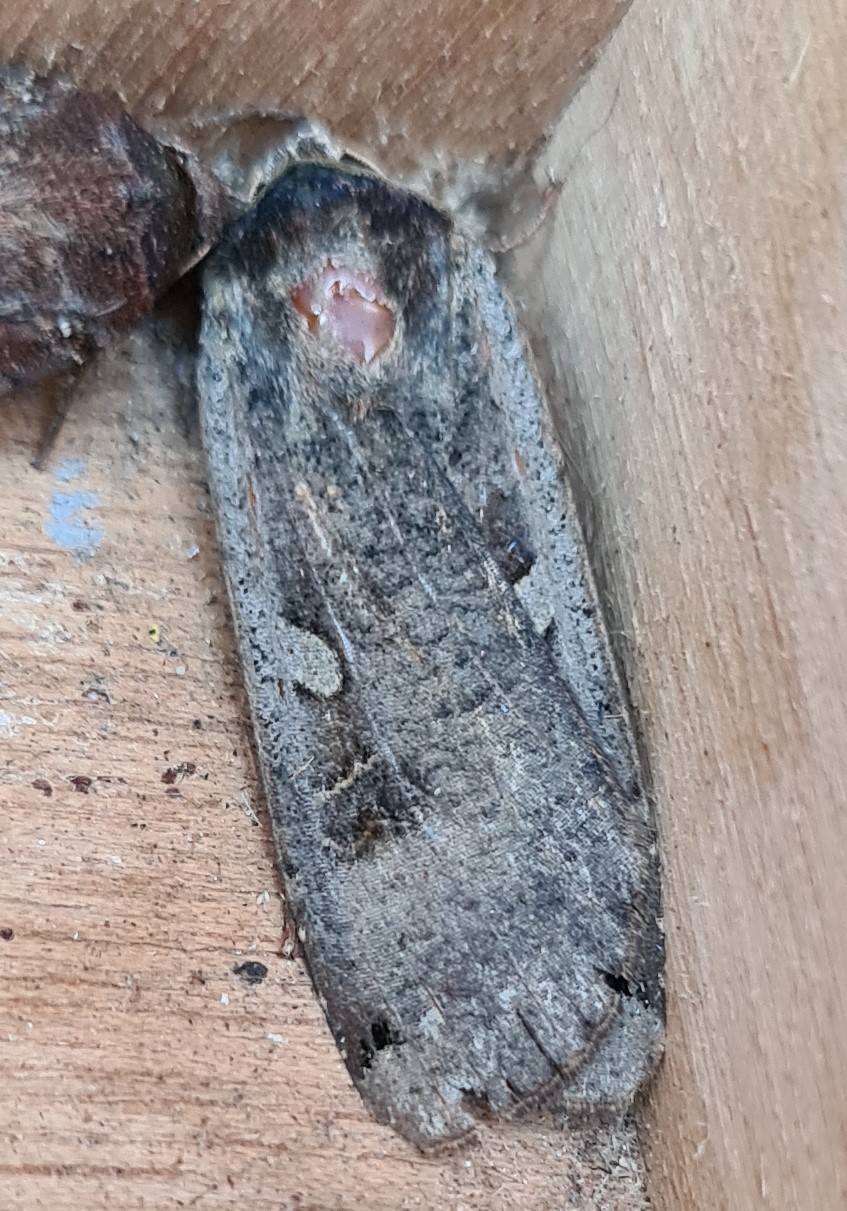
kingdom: Animalia
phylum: Arthropoda
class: Insecta
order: Lepidoptera
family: Noctuidae
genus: Noctua
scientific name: Noctua pronuba
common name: Large yellow underwing
